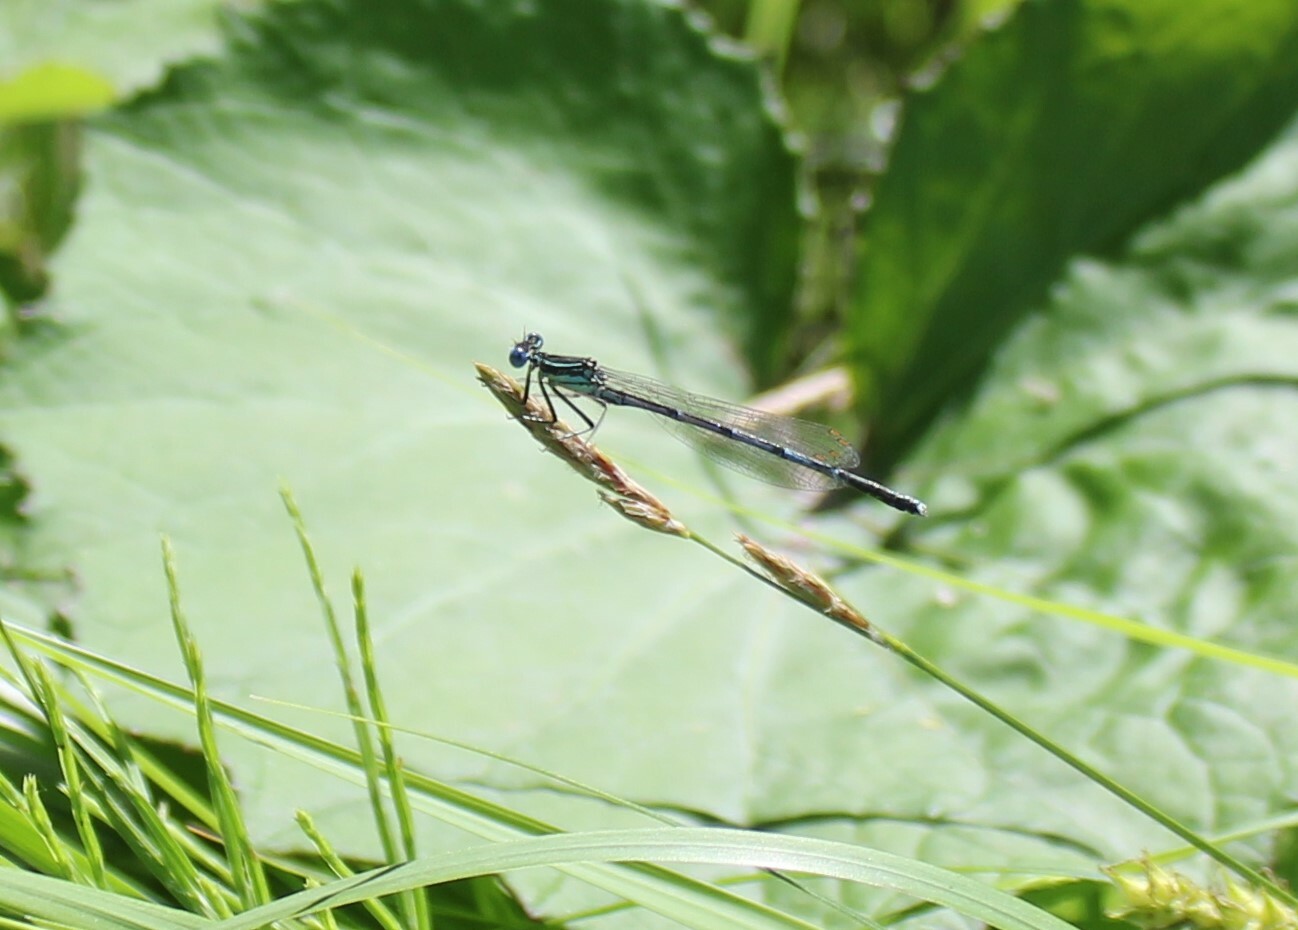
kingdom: Animalia
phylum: Arthropoda
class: Insecta
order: Odonata
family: Platycnemididae
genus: Platycnemis
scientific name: Platycnemis pennipes
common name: White-legged damselfly
